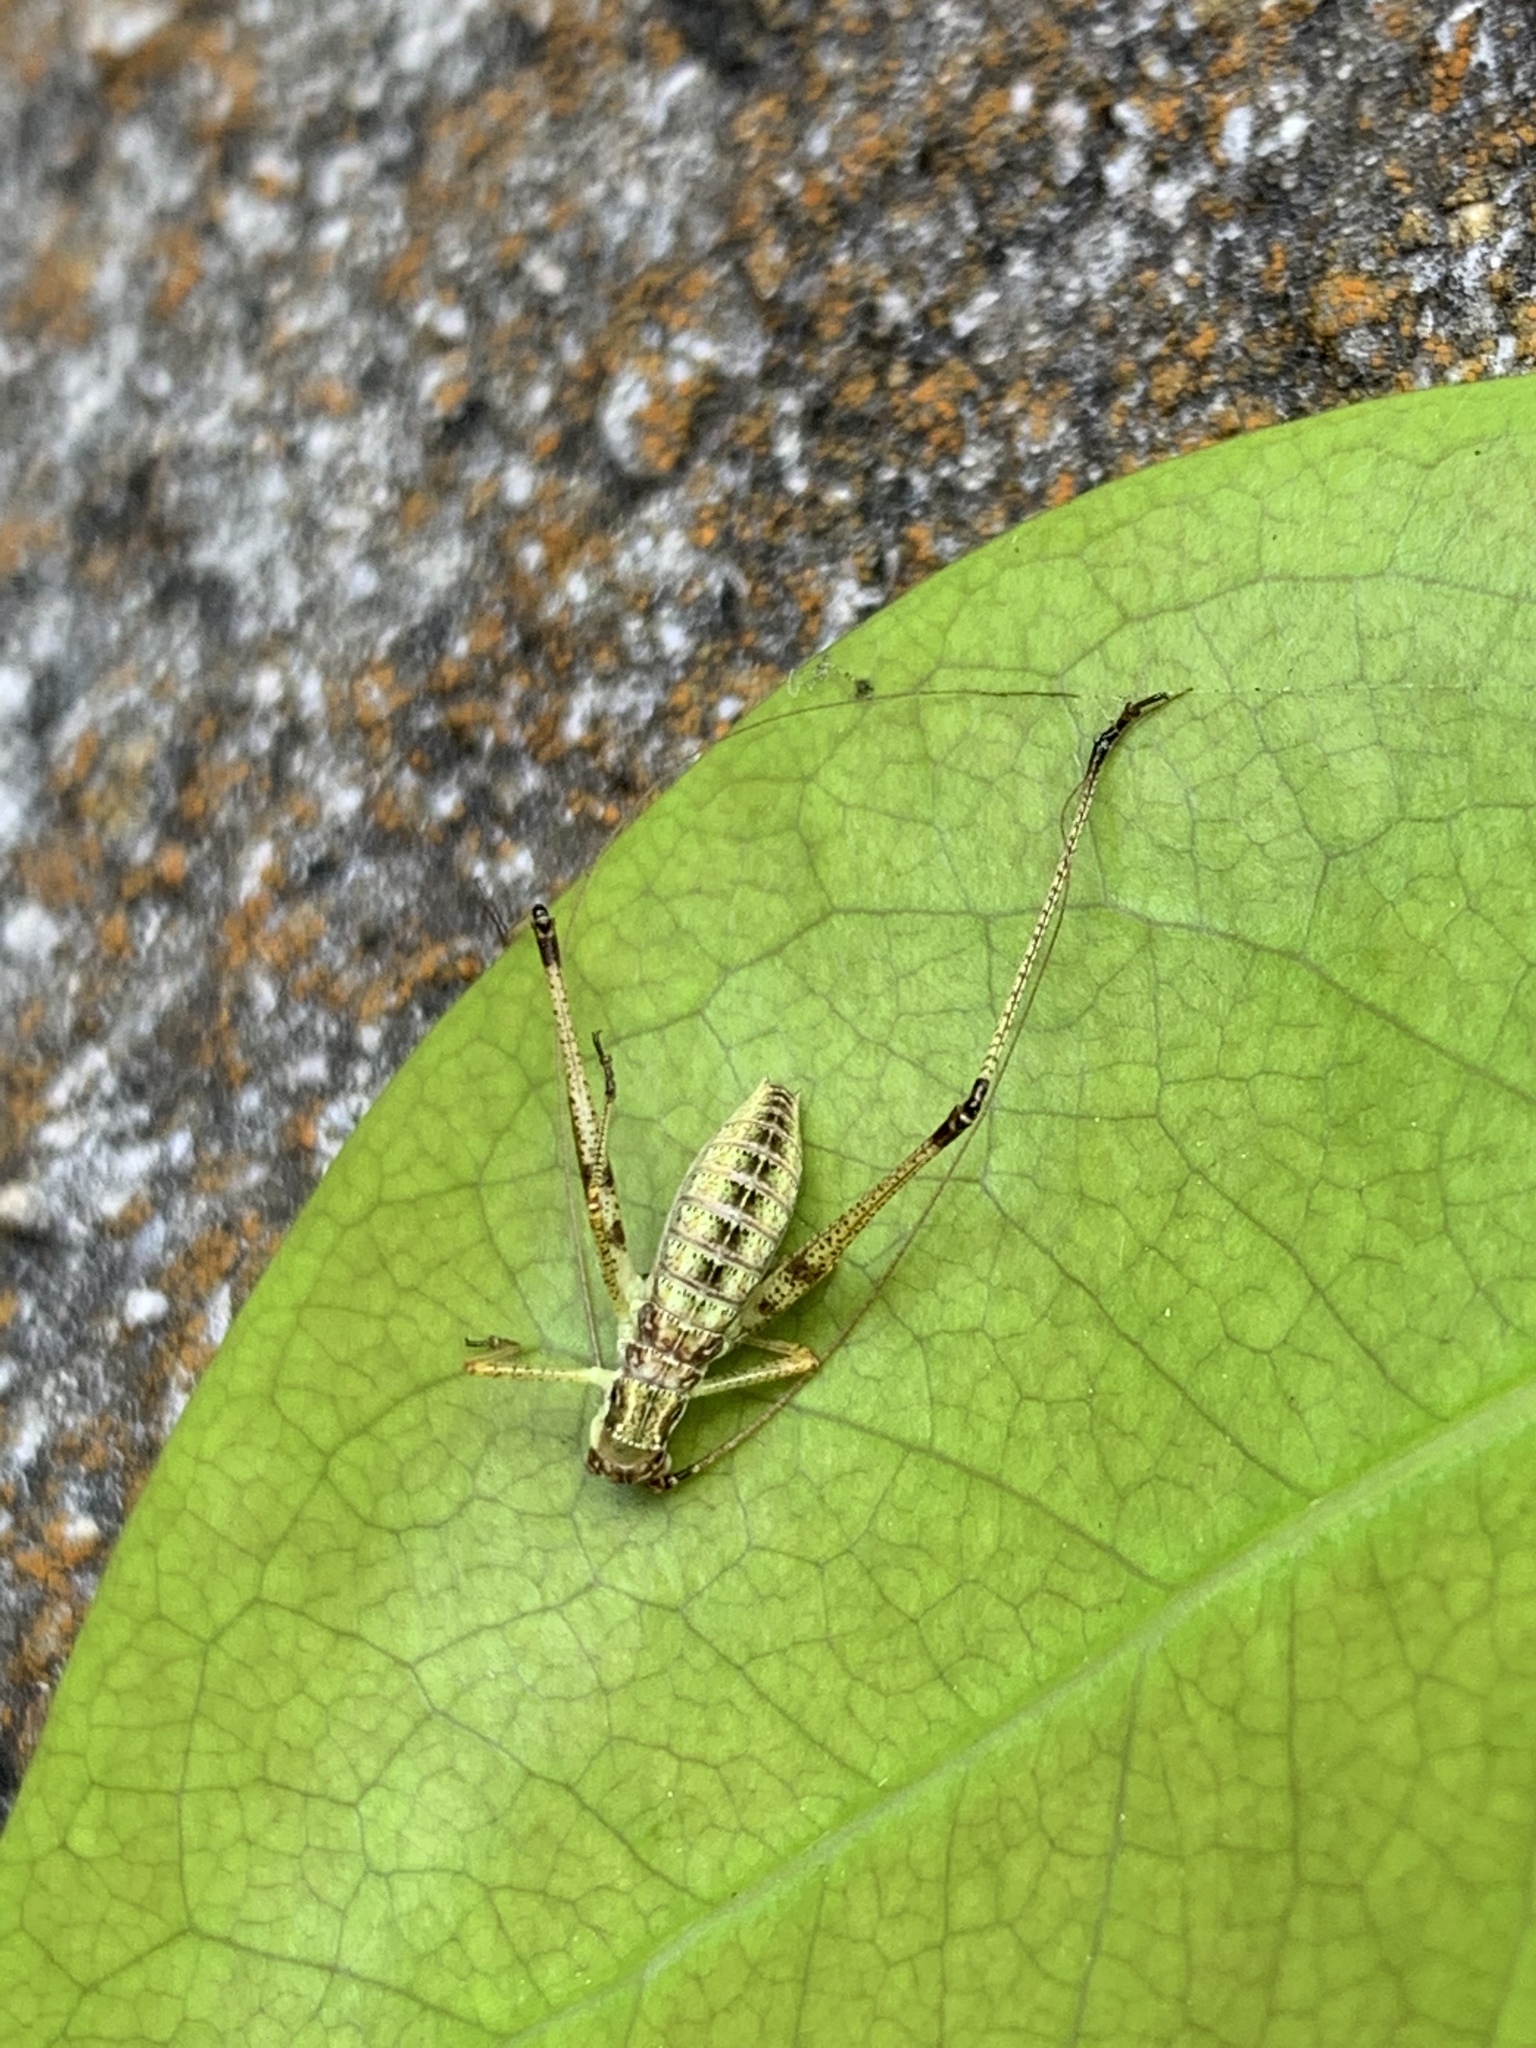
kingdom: Animalia
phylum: Arthropoda
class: Insecta
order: Orthoptera
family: Tettigoniidae
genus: Phaneroptera
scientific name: Phaneroptera
